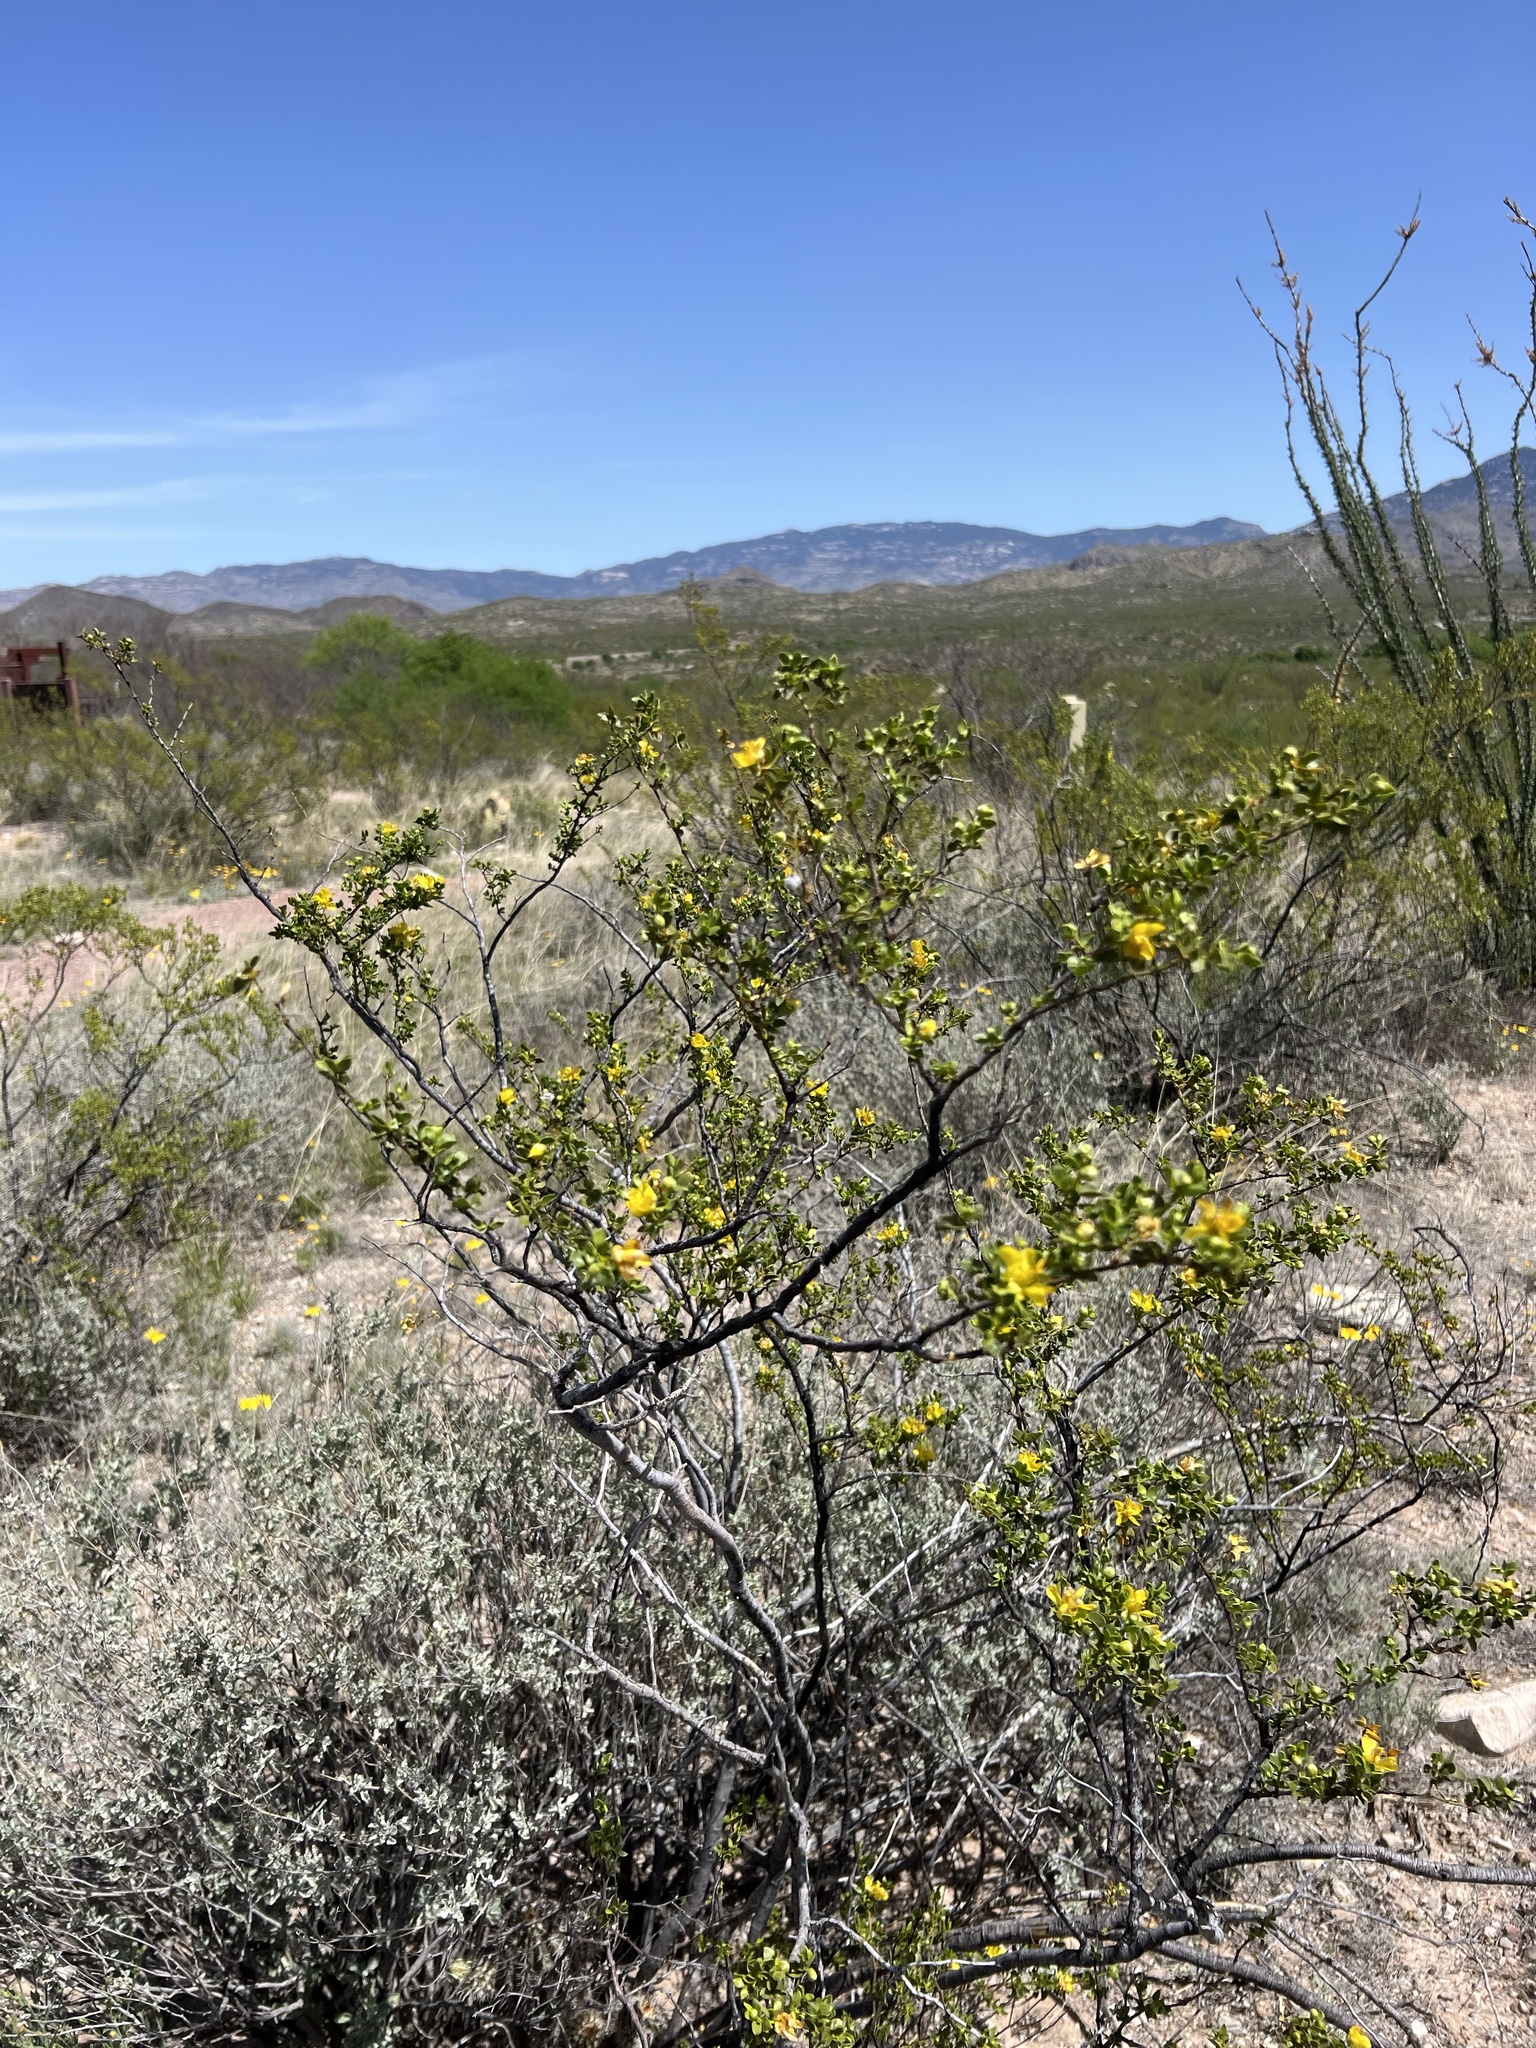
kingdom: Plantae
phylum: Tracheophyta
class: Magnoliopsida
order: Zygophyllales
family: Zygophyllaceae
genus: Larrea
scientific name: Larrea tridentata
